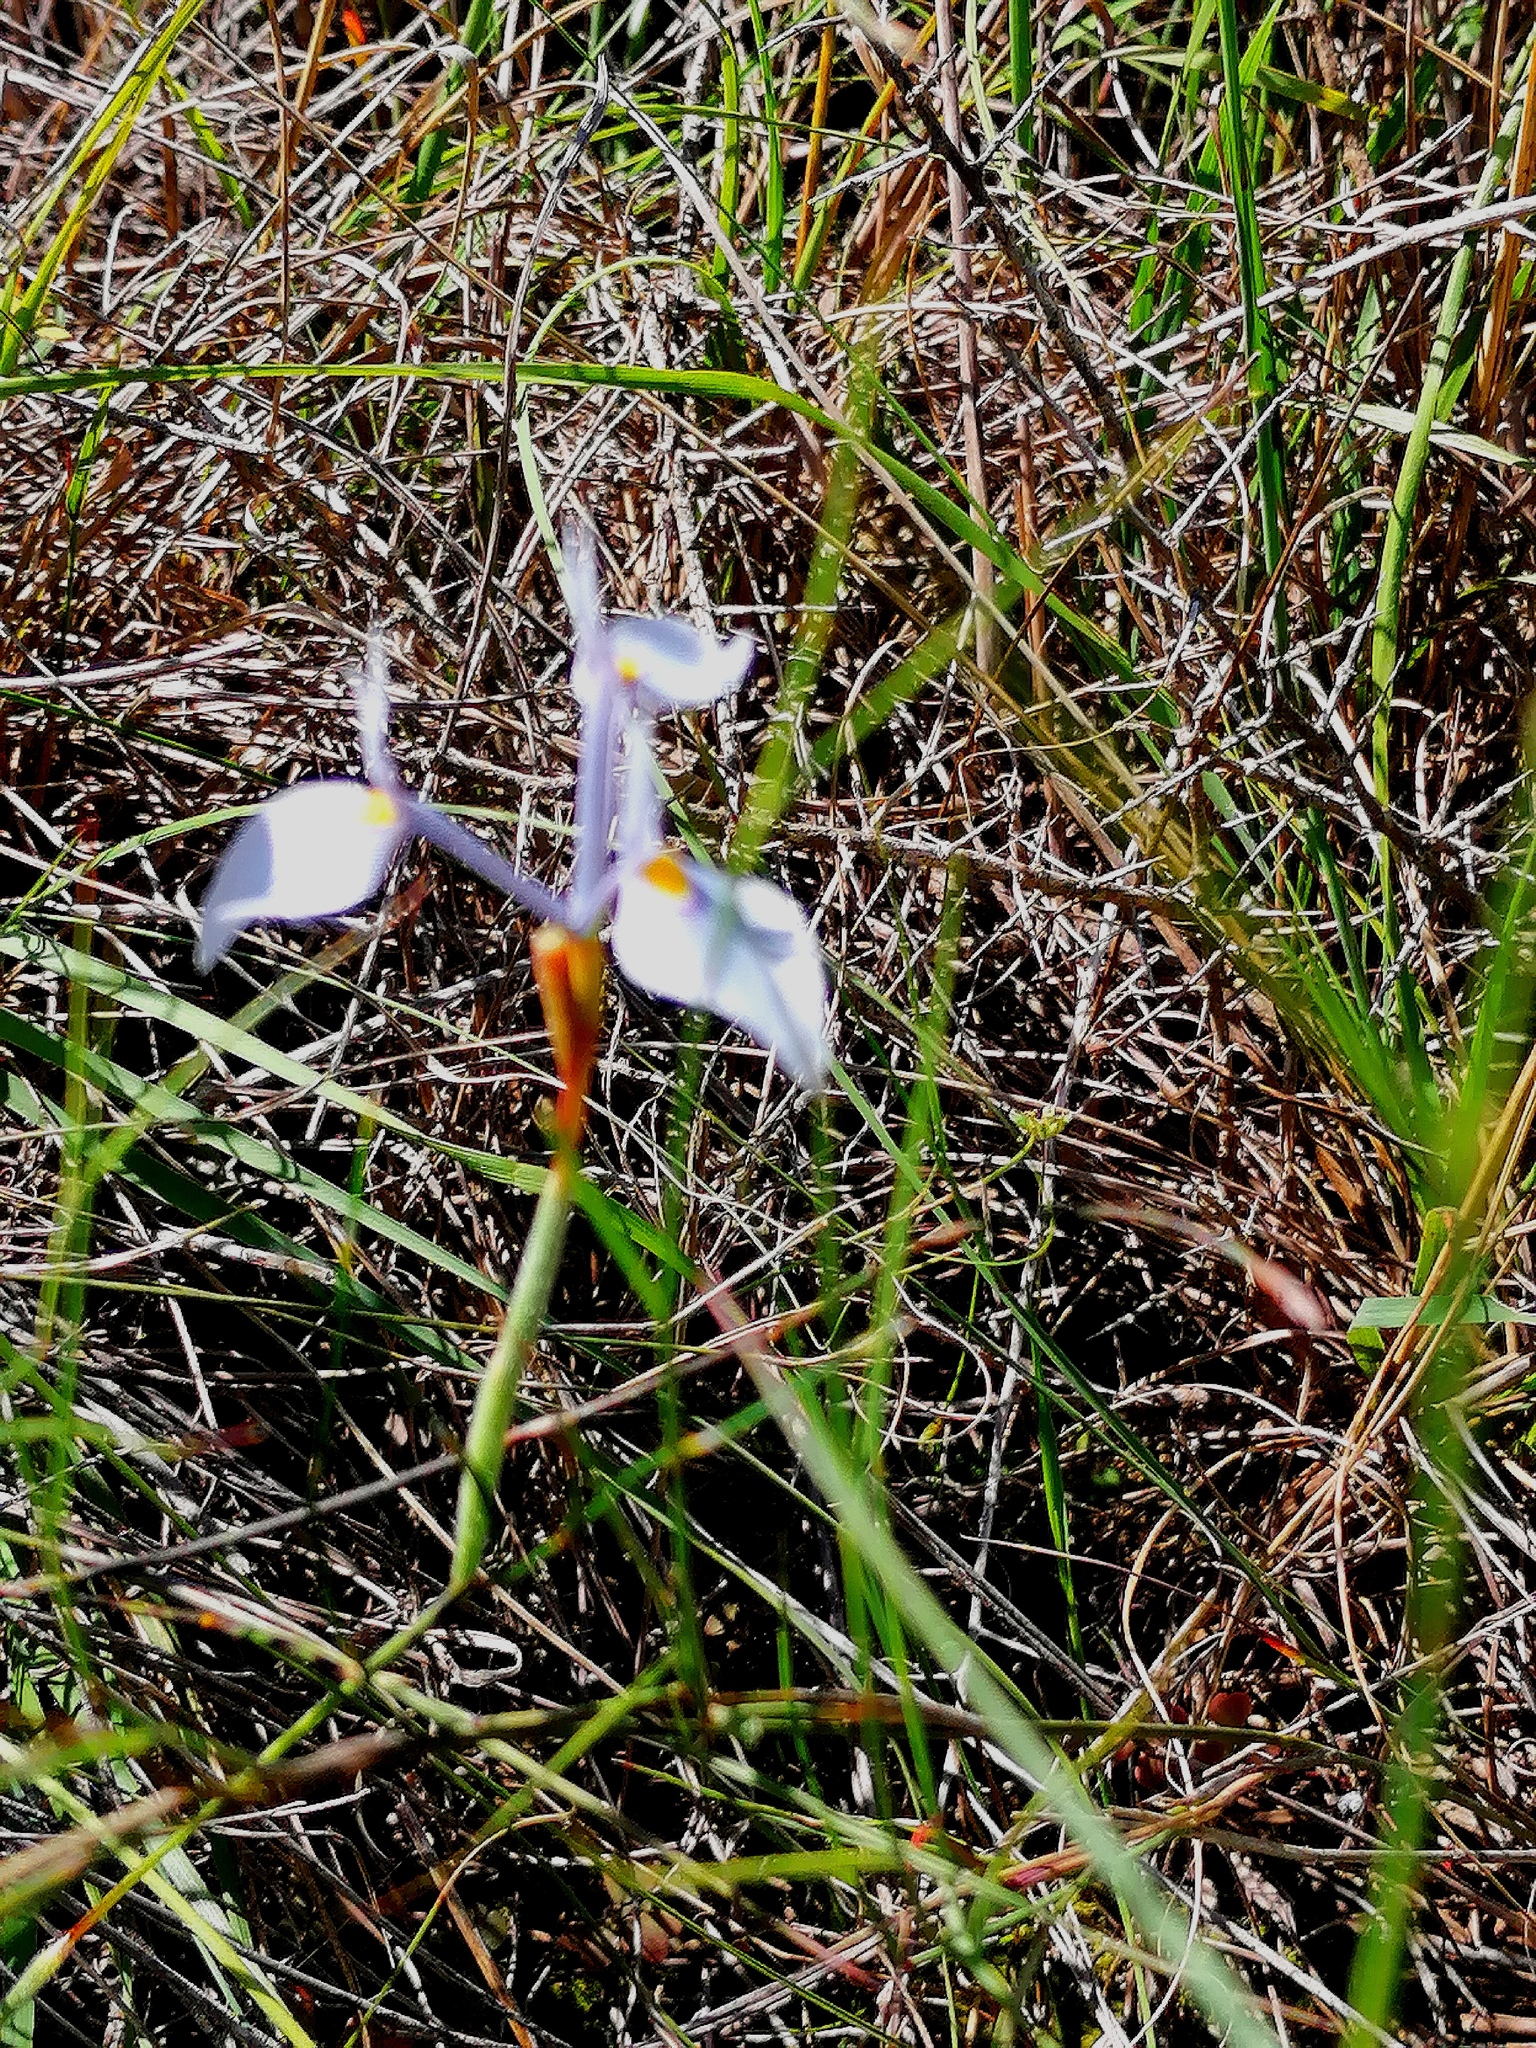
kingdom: Plantae
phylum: Tracheophyta
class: Liliopsida
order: Asparagales
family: Iridaceae
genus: Moraea
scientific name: Moraea tripetala
